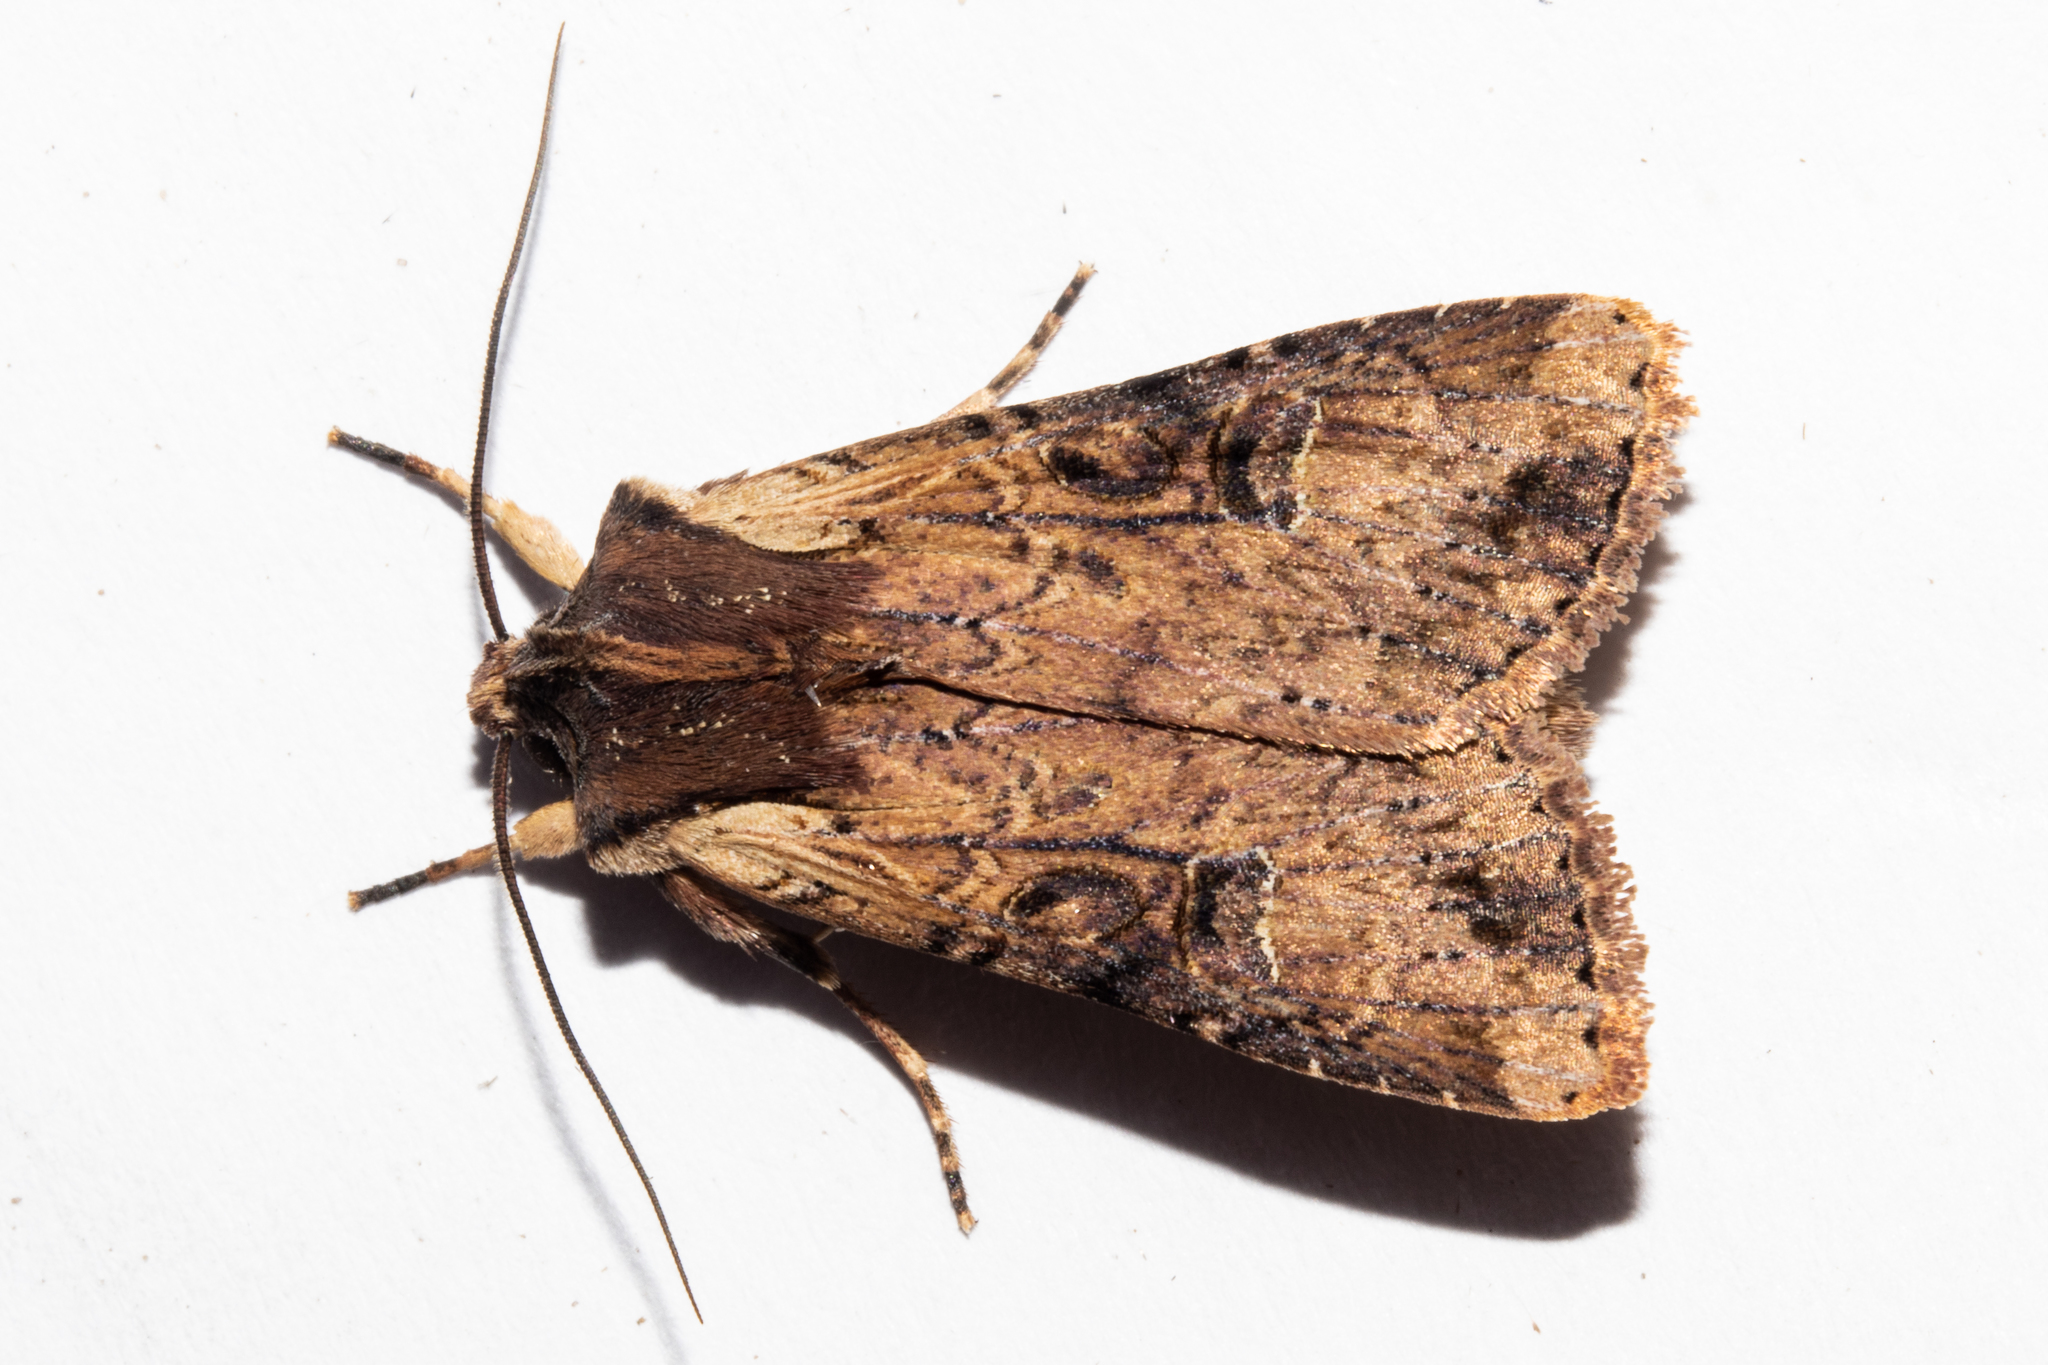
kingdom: Animalia
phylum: Arthropoda
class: Insecta
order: Lepidoptera
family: Noctuidae
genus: Ichneutica
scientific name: Ichneutica omoplaca
